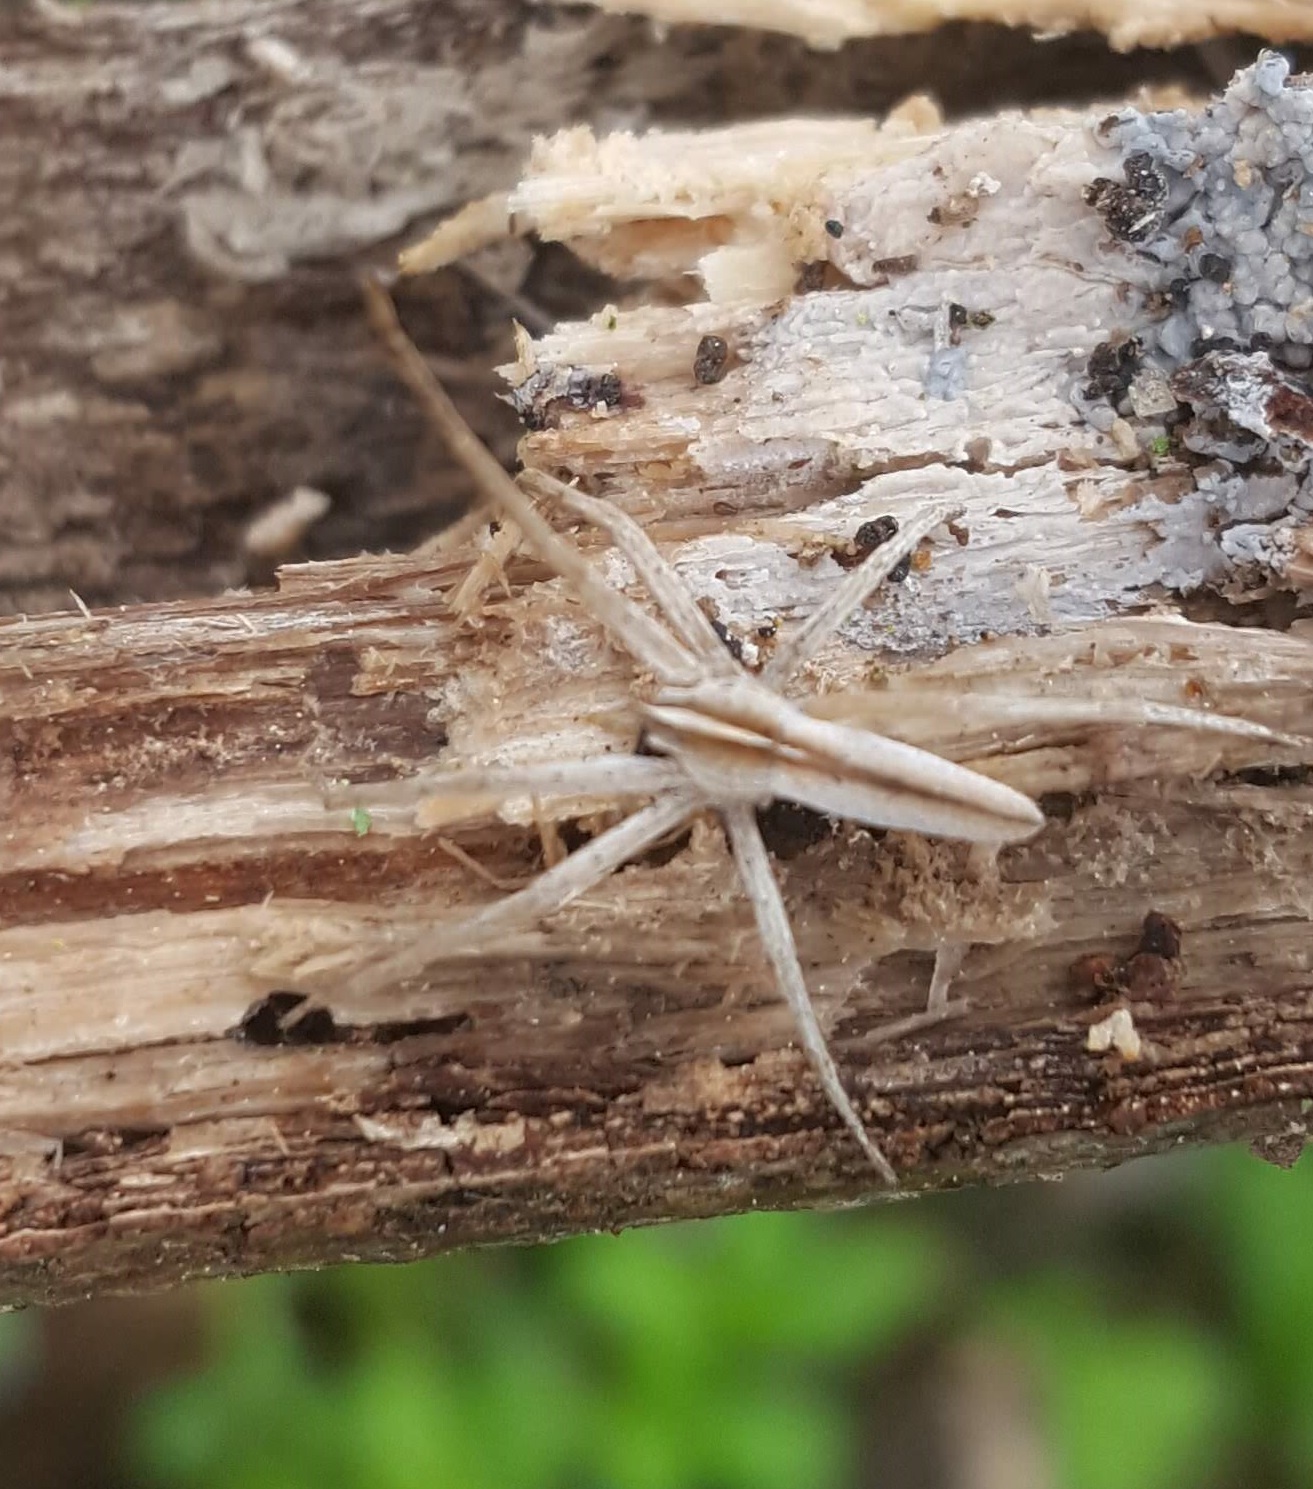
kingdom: Animalia
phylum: Arthropoda
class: Arachnida
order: Araneae
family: Pisauridae
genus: Pisaurina
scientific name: Pisaurina dubia
